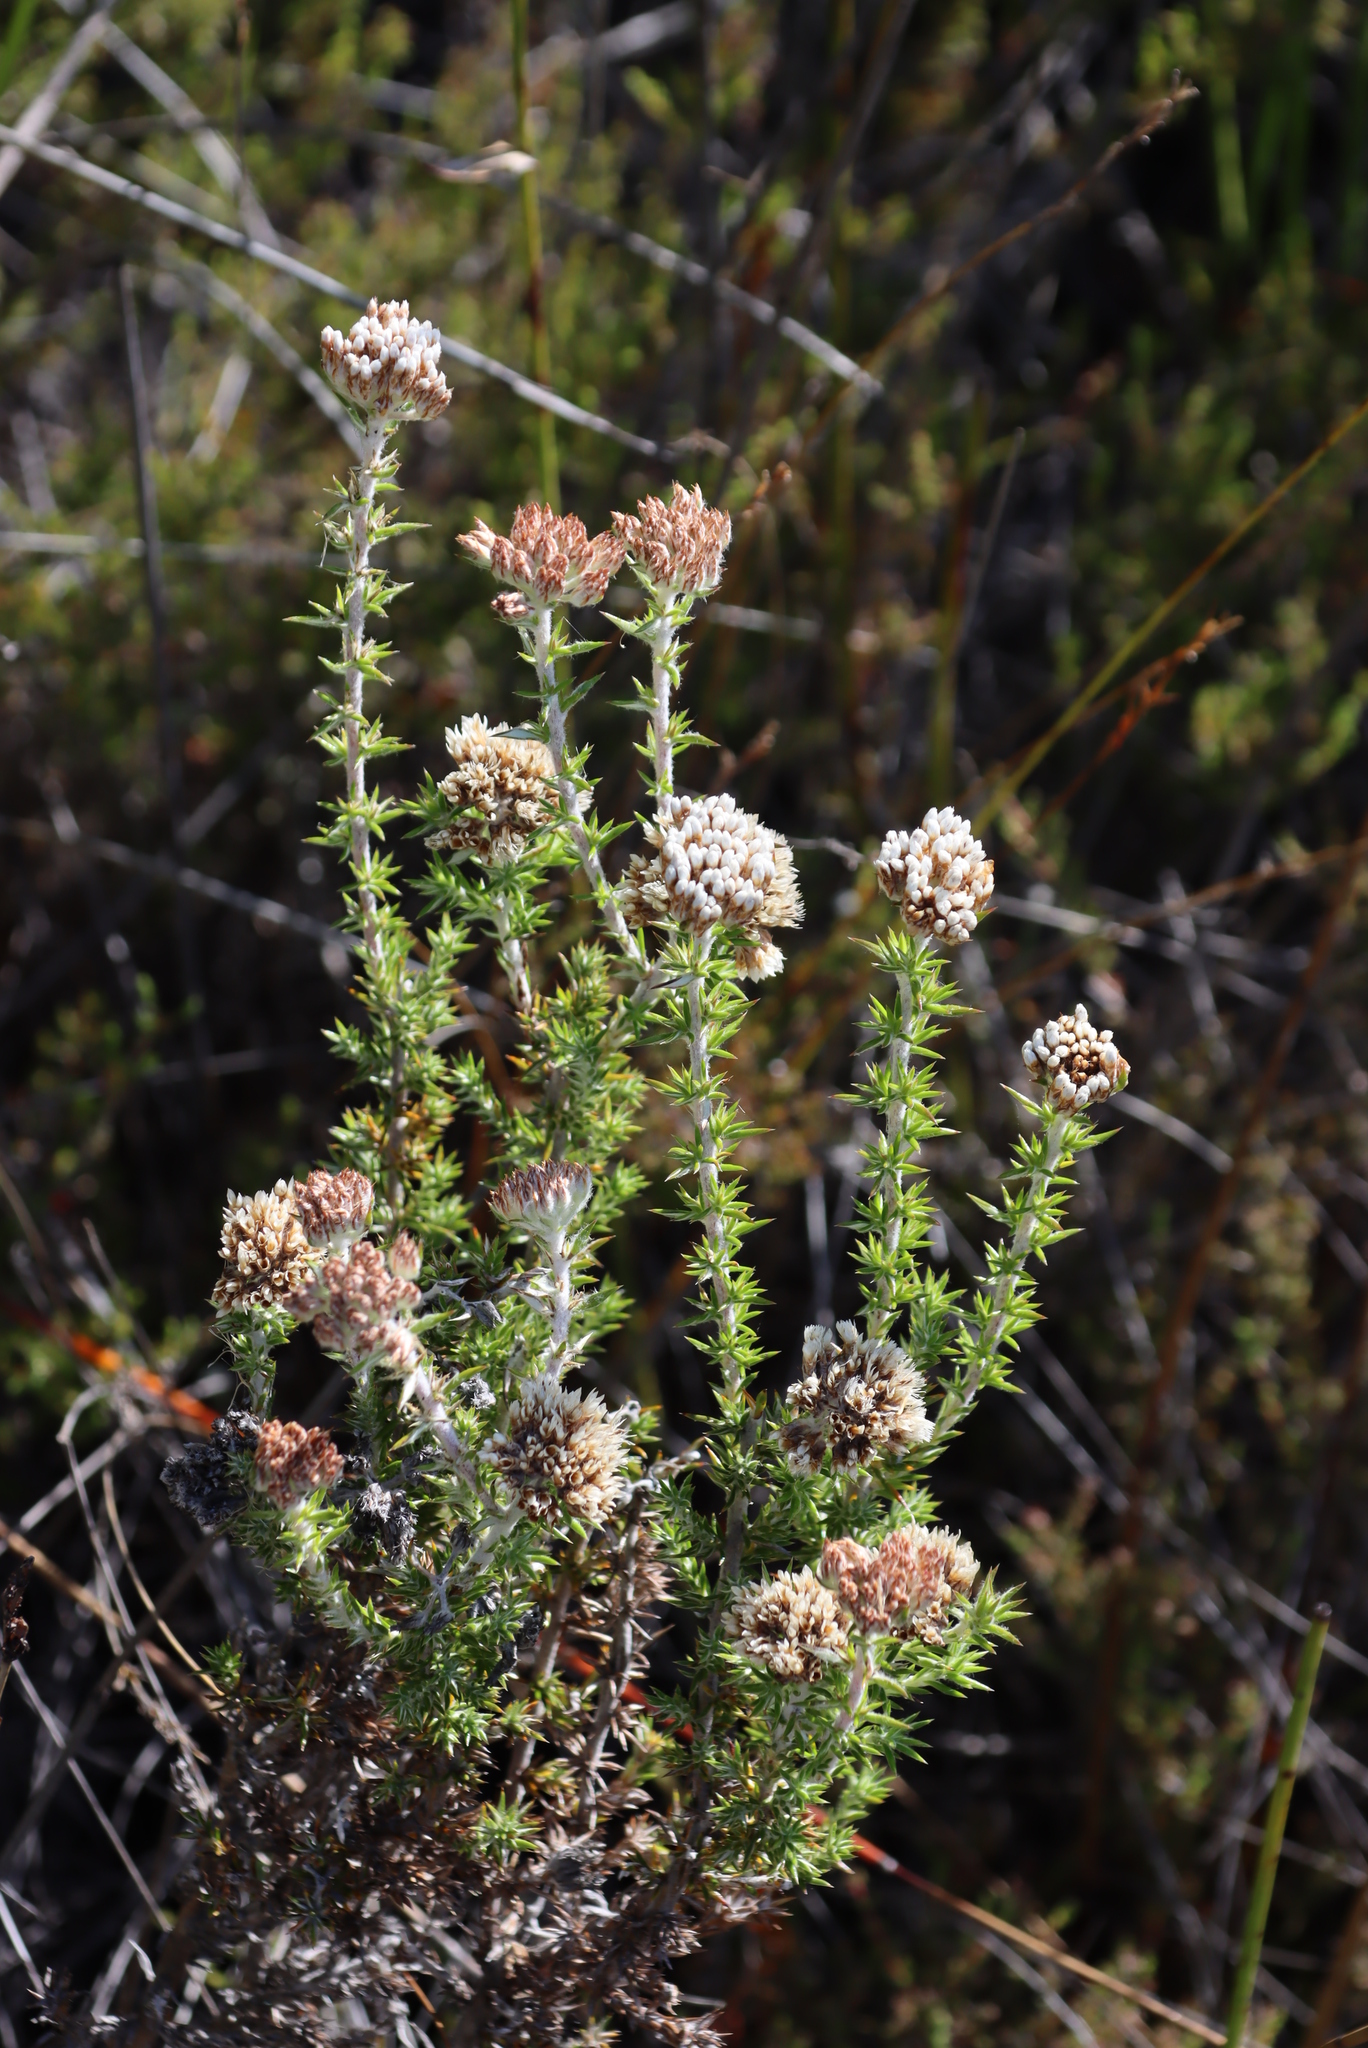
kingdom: Plantae
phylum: Tracheophyta
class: Magnoliopsida
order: Asterales
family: Asteraceae
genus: Metalasia
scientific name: Metalasia densa
